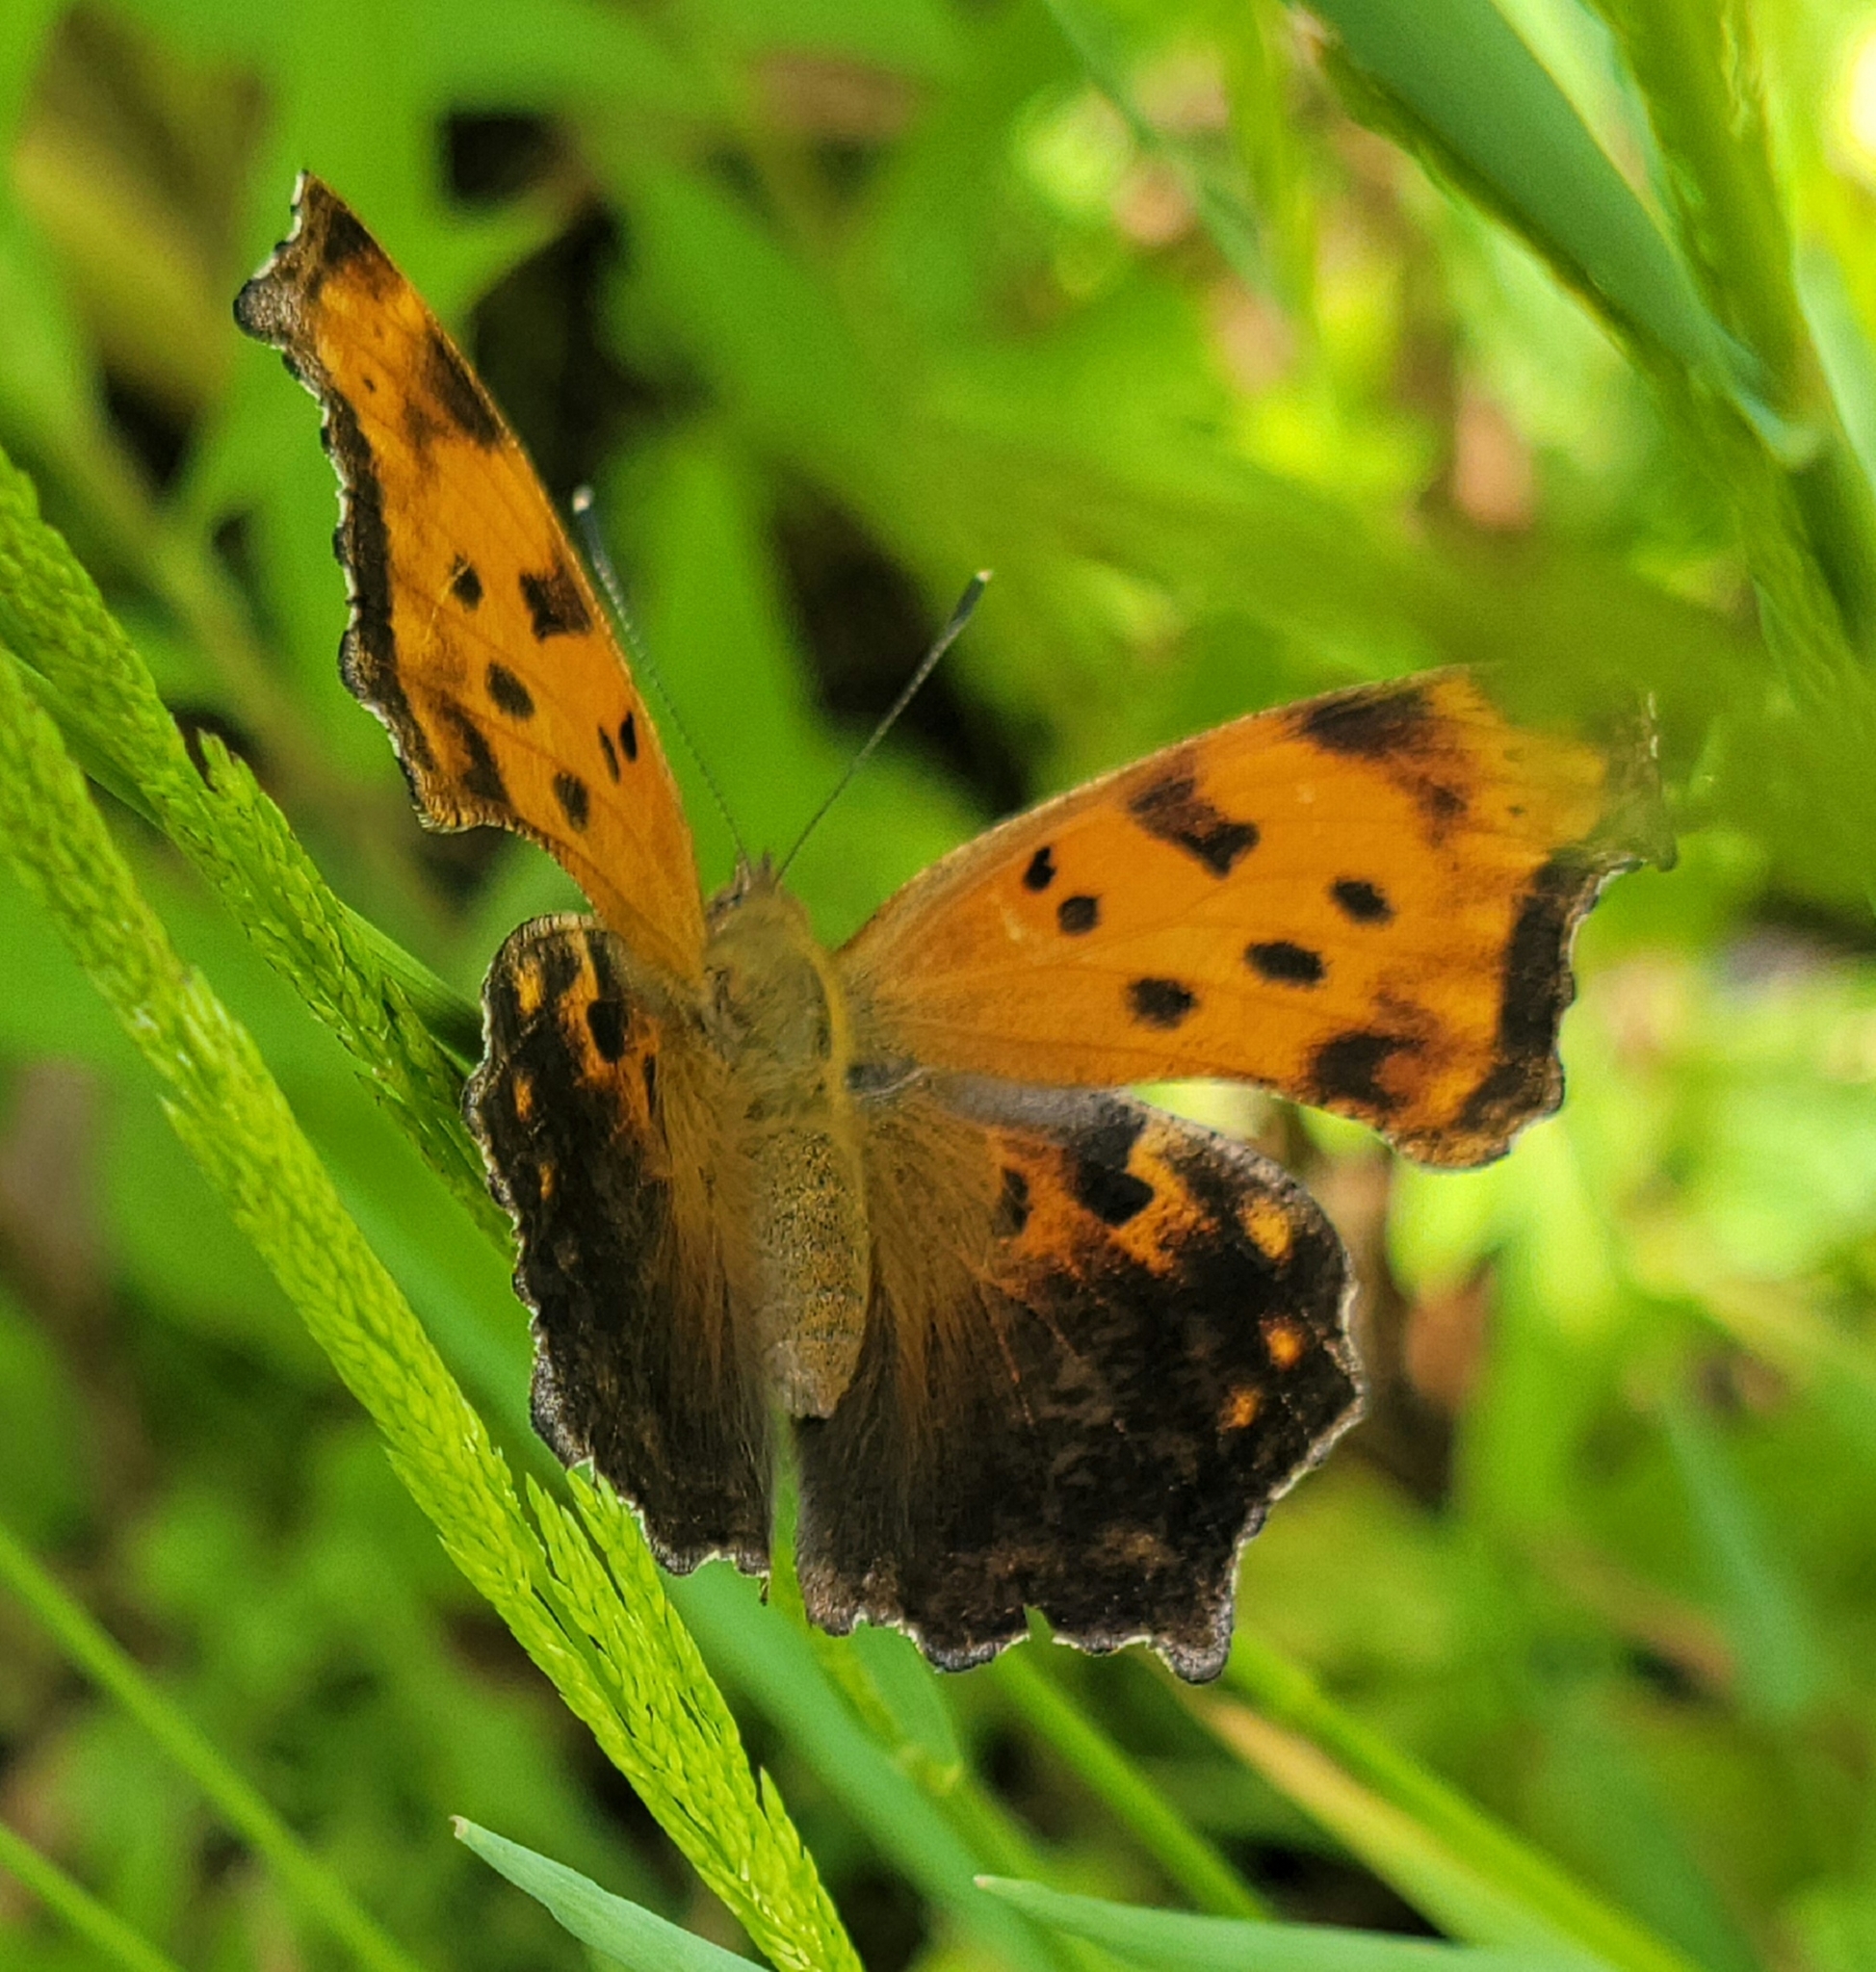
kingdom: Animalia
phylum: Arthropoda
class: Insecta
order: Lepidoptera
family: Nymphalidae
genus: Polygonia
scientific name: Polygonia comma
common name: Eastern comma
